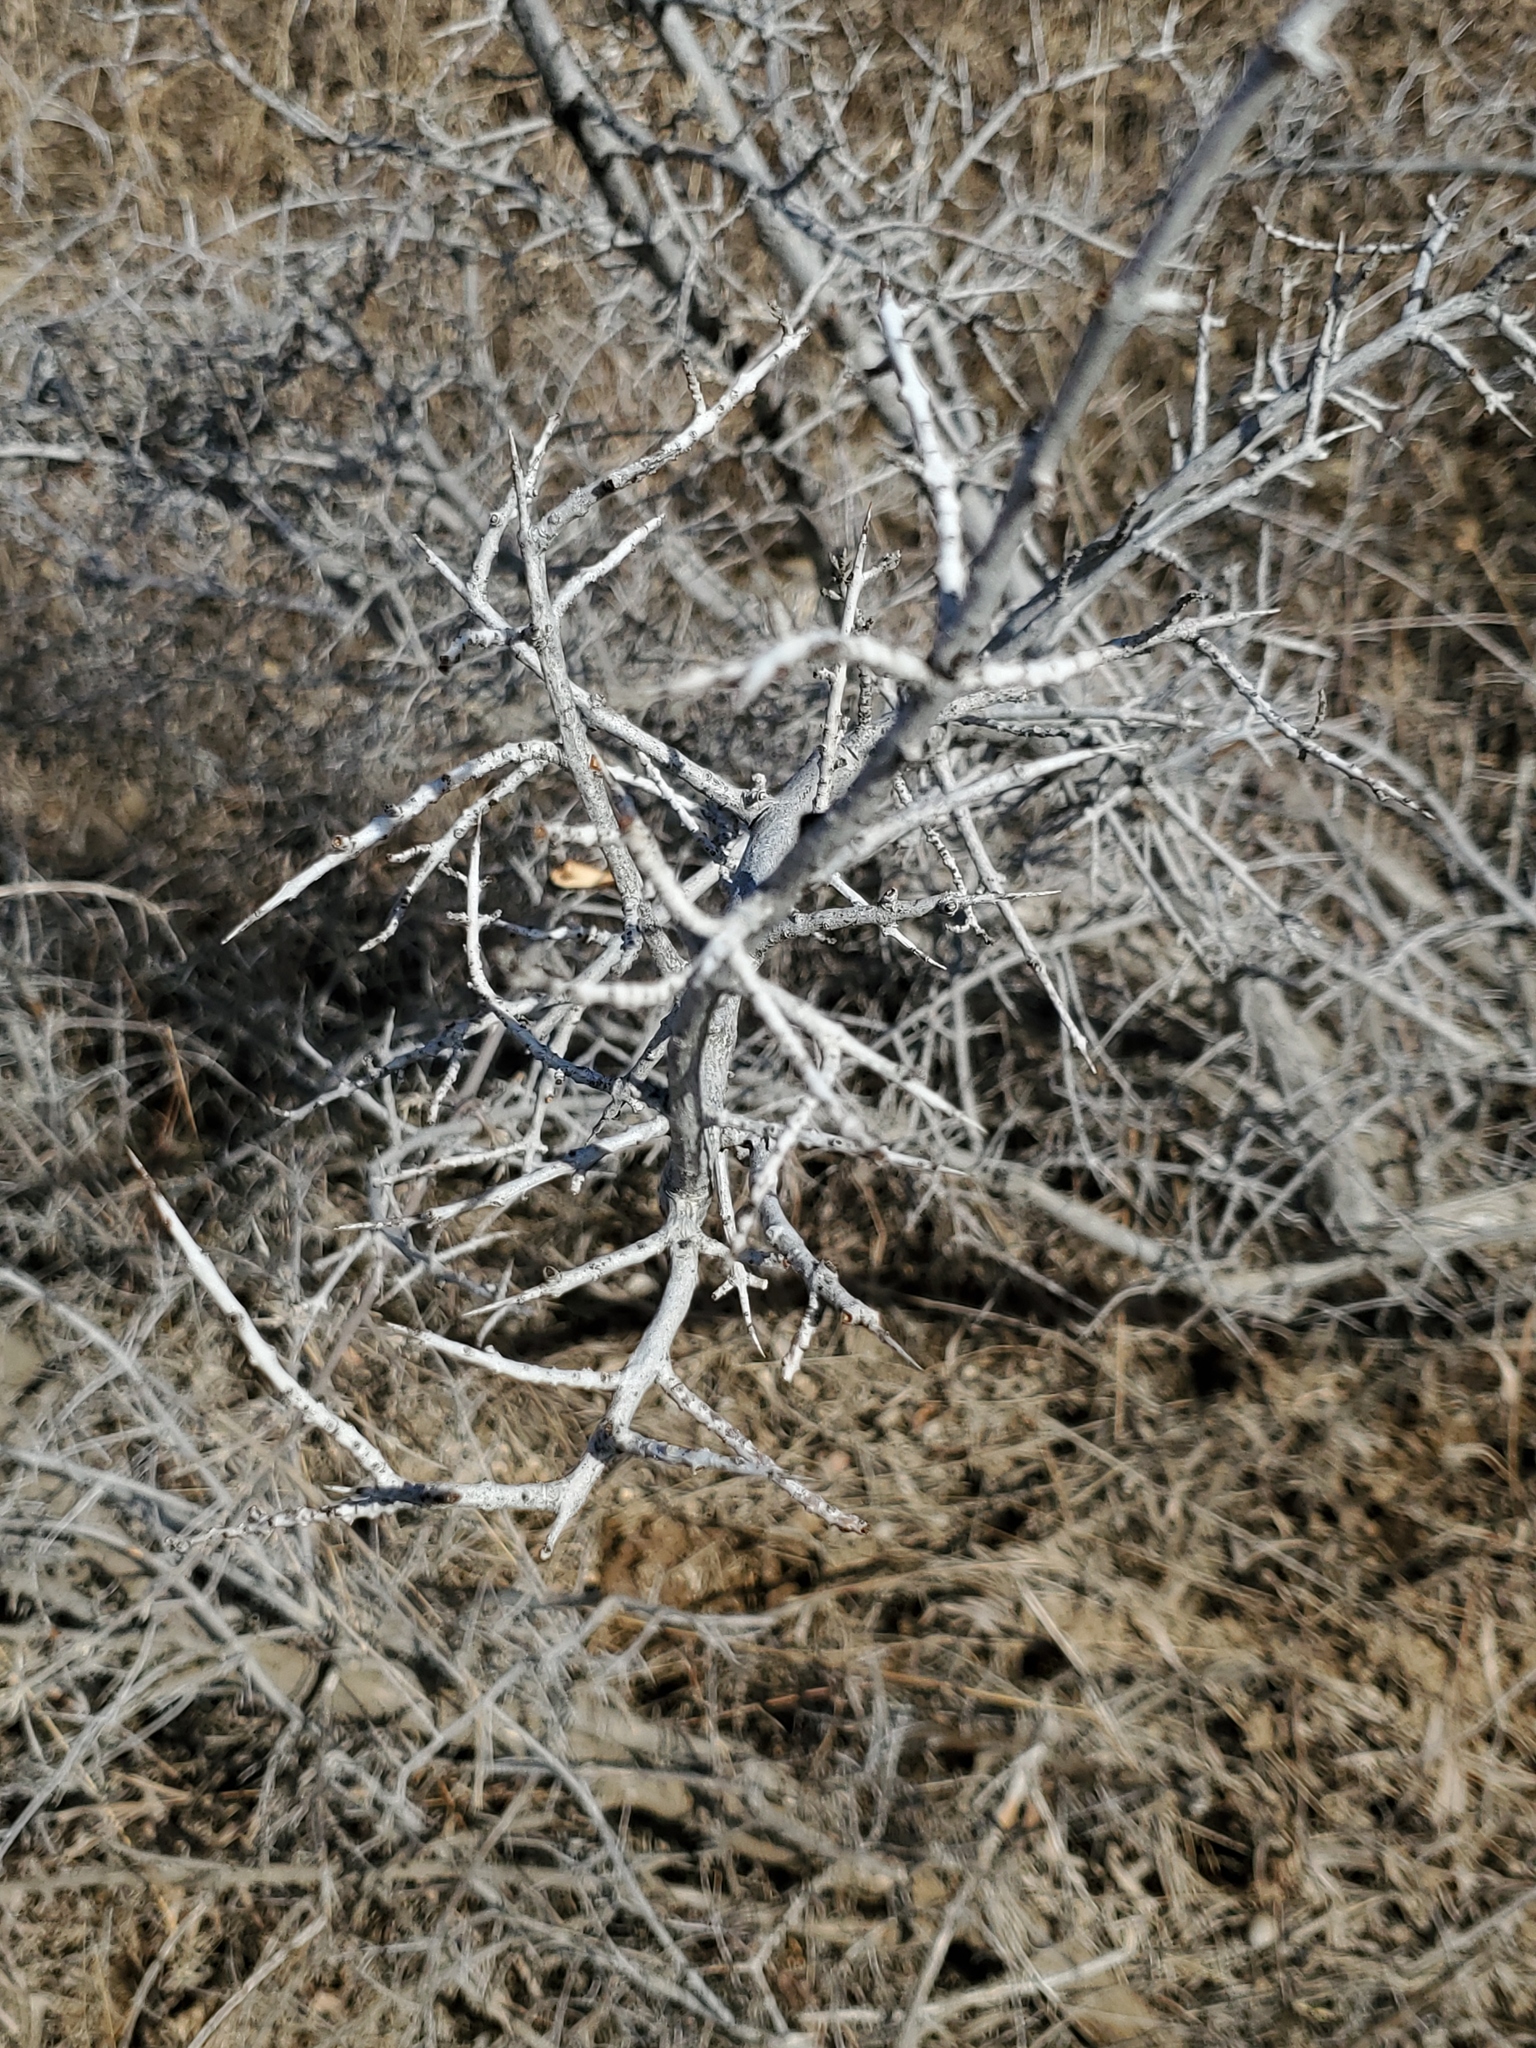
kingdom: Plantae
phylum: Tracheophyta
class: Magnoliopsida
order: Rosales
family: Elaeagnaceae
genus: Shepherdia
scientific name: Shepherdia argentea
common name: Silver buffaloberry
